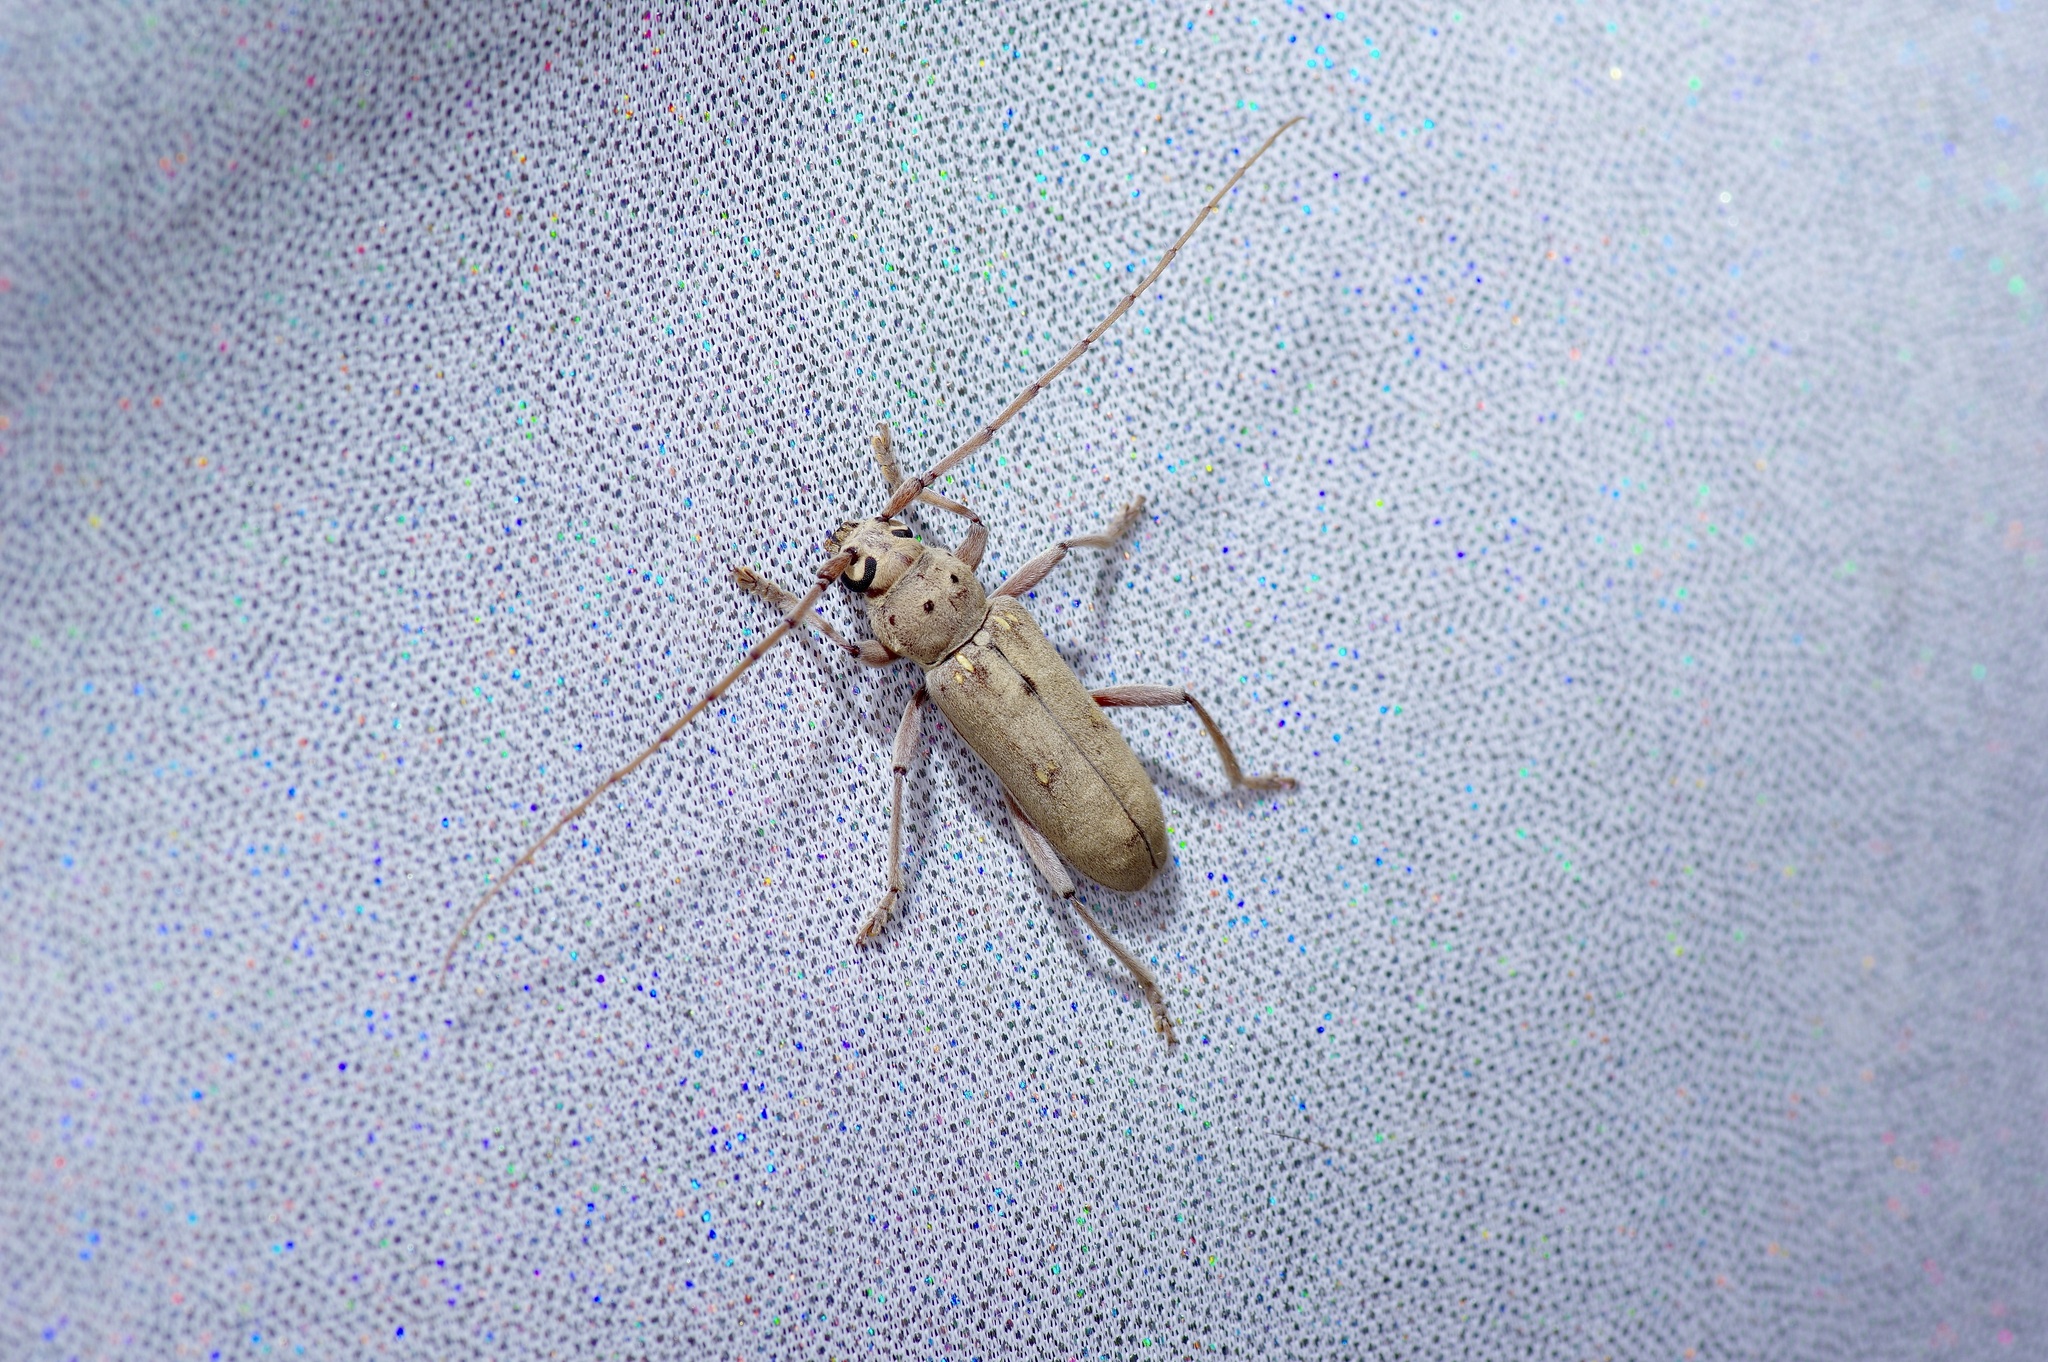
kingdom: Animalia
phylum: Arthropoda
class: Insecta
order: Coleoptera
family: Cerambycidae
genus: Eburia
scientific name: Eburia mutica
